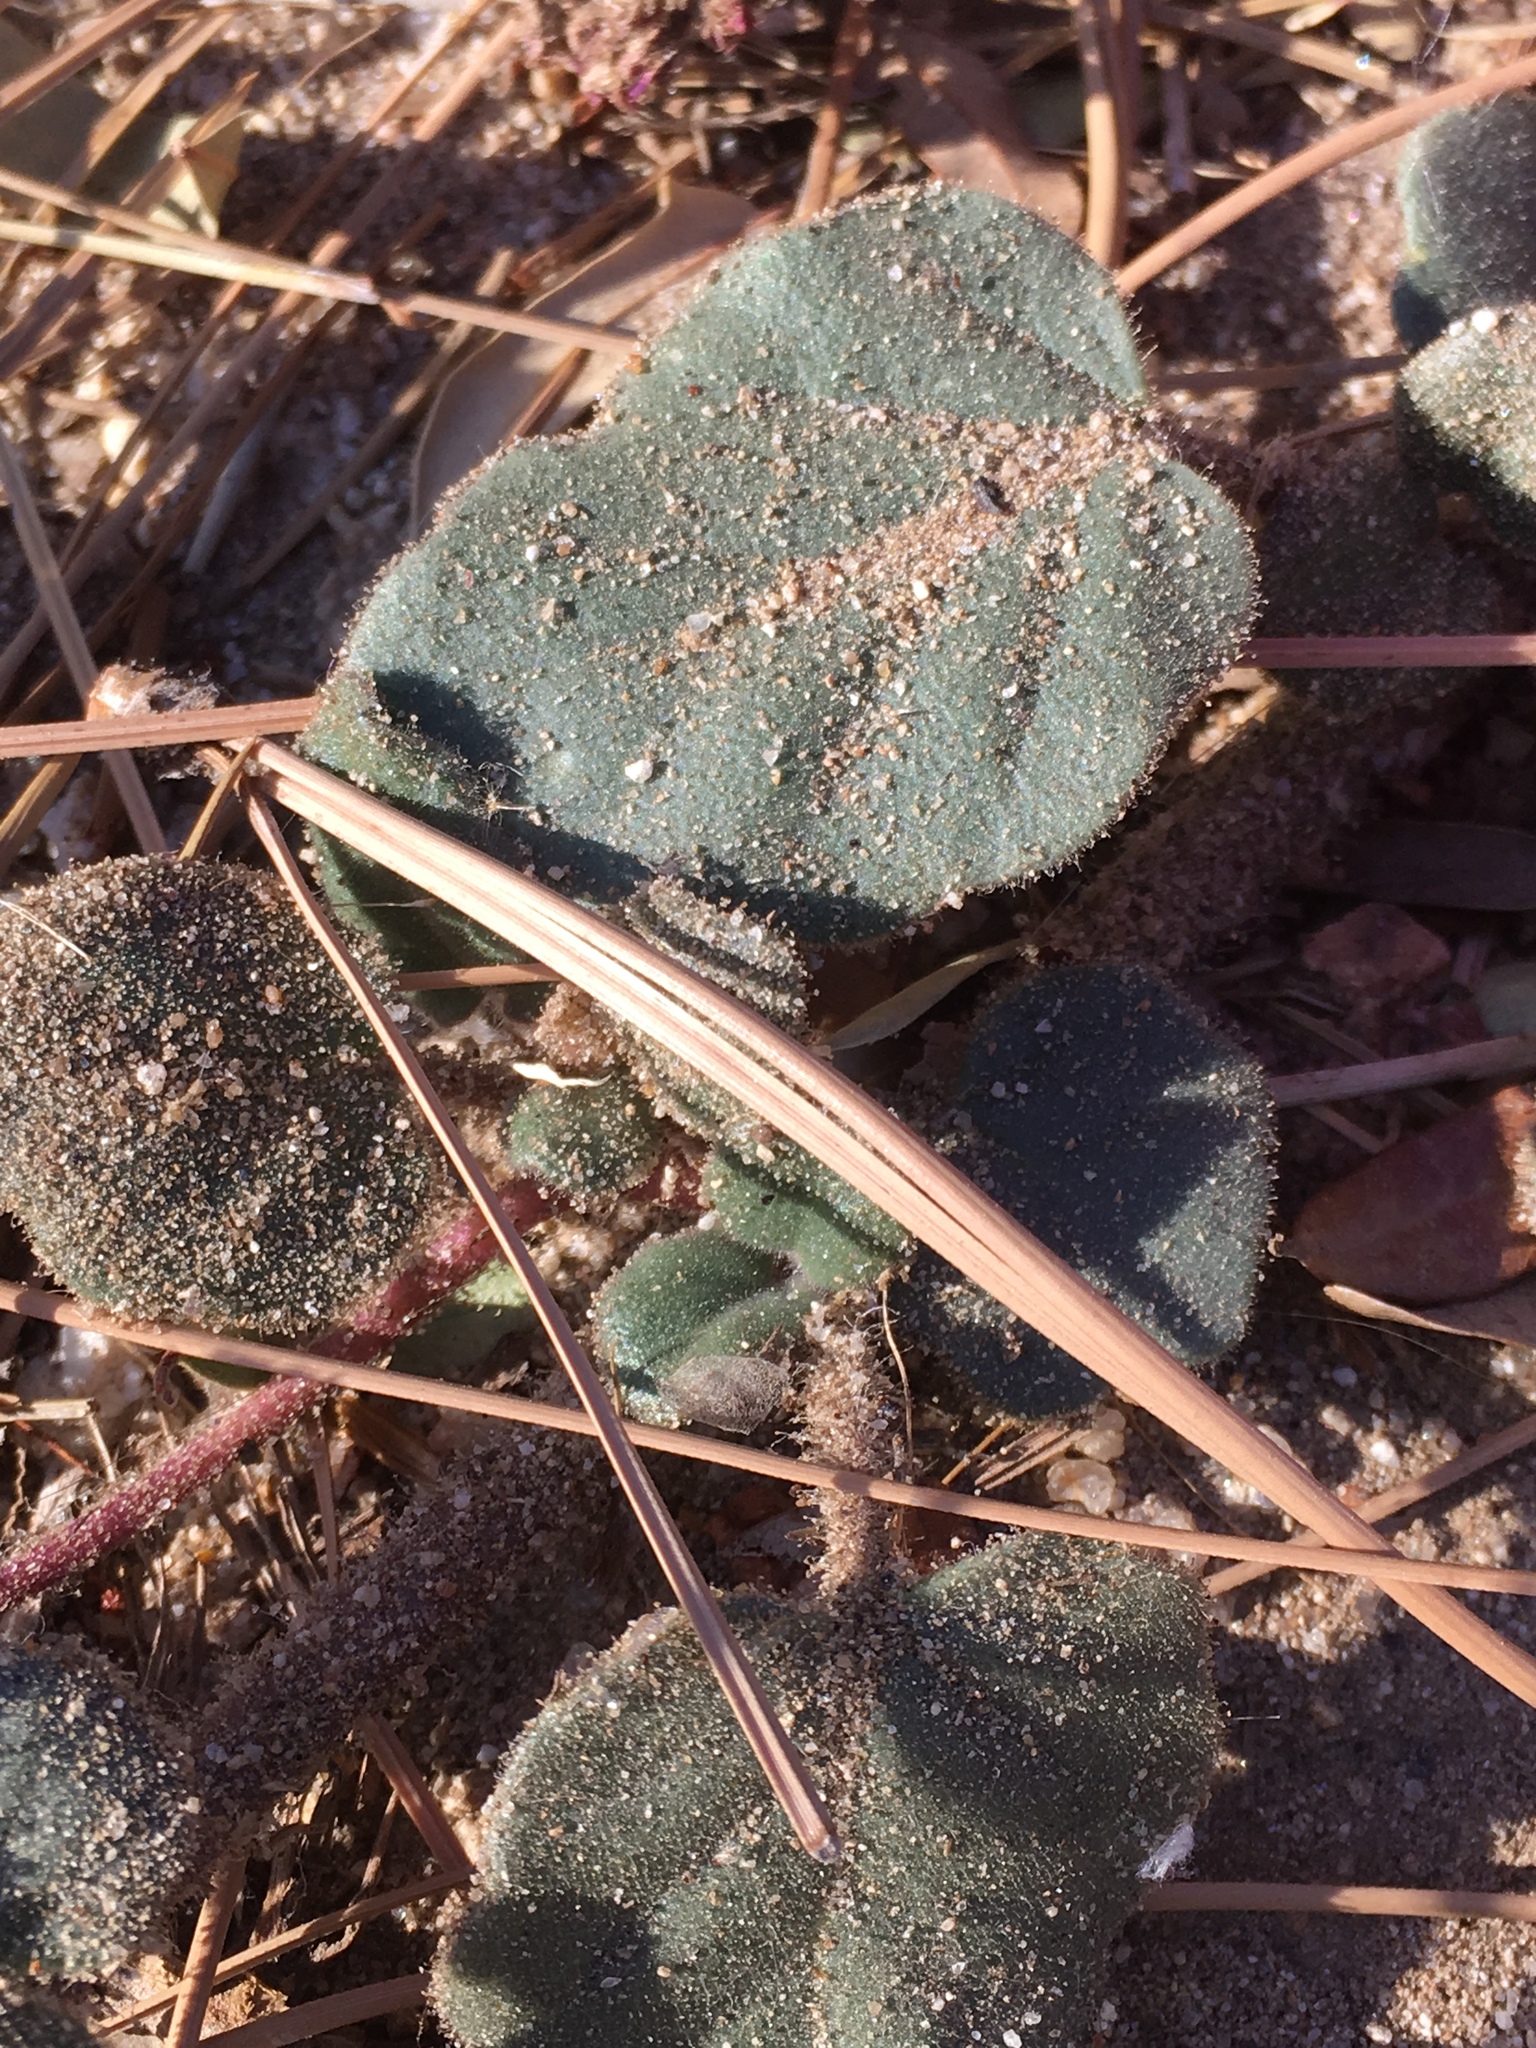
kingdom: Plantae
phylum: Tracheophyta
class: Magnoliopsida
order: Caryophyllales
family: Nyctaginaceae
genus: Abronia
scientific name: Abronia villosa
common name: Desert sand-verbena
